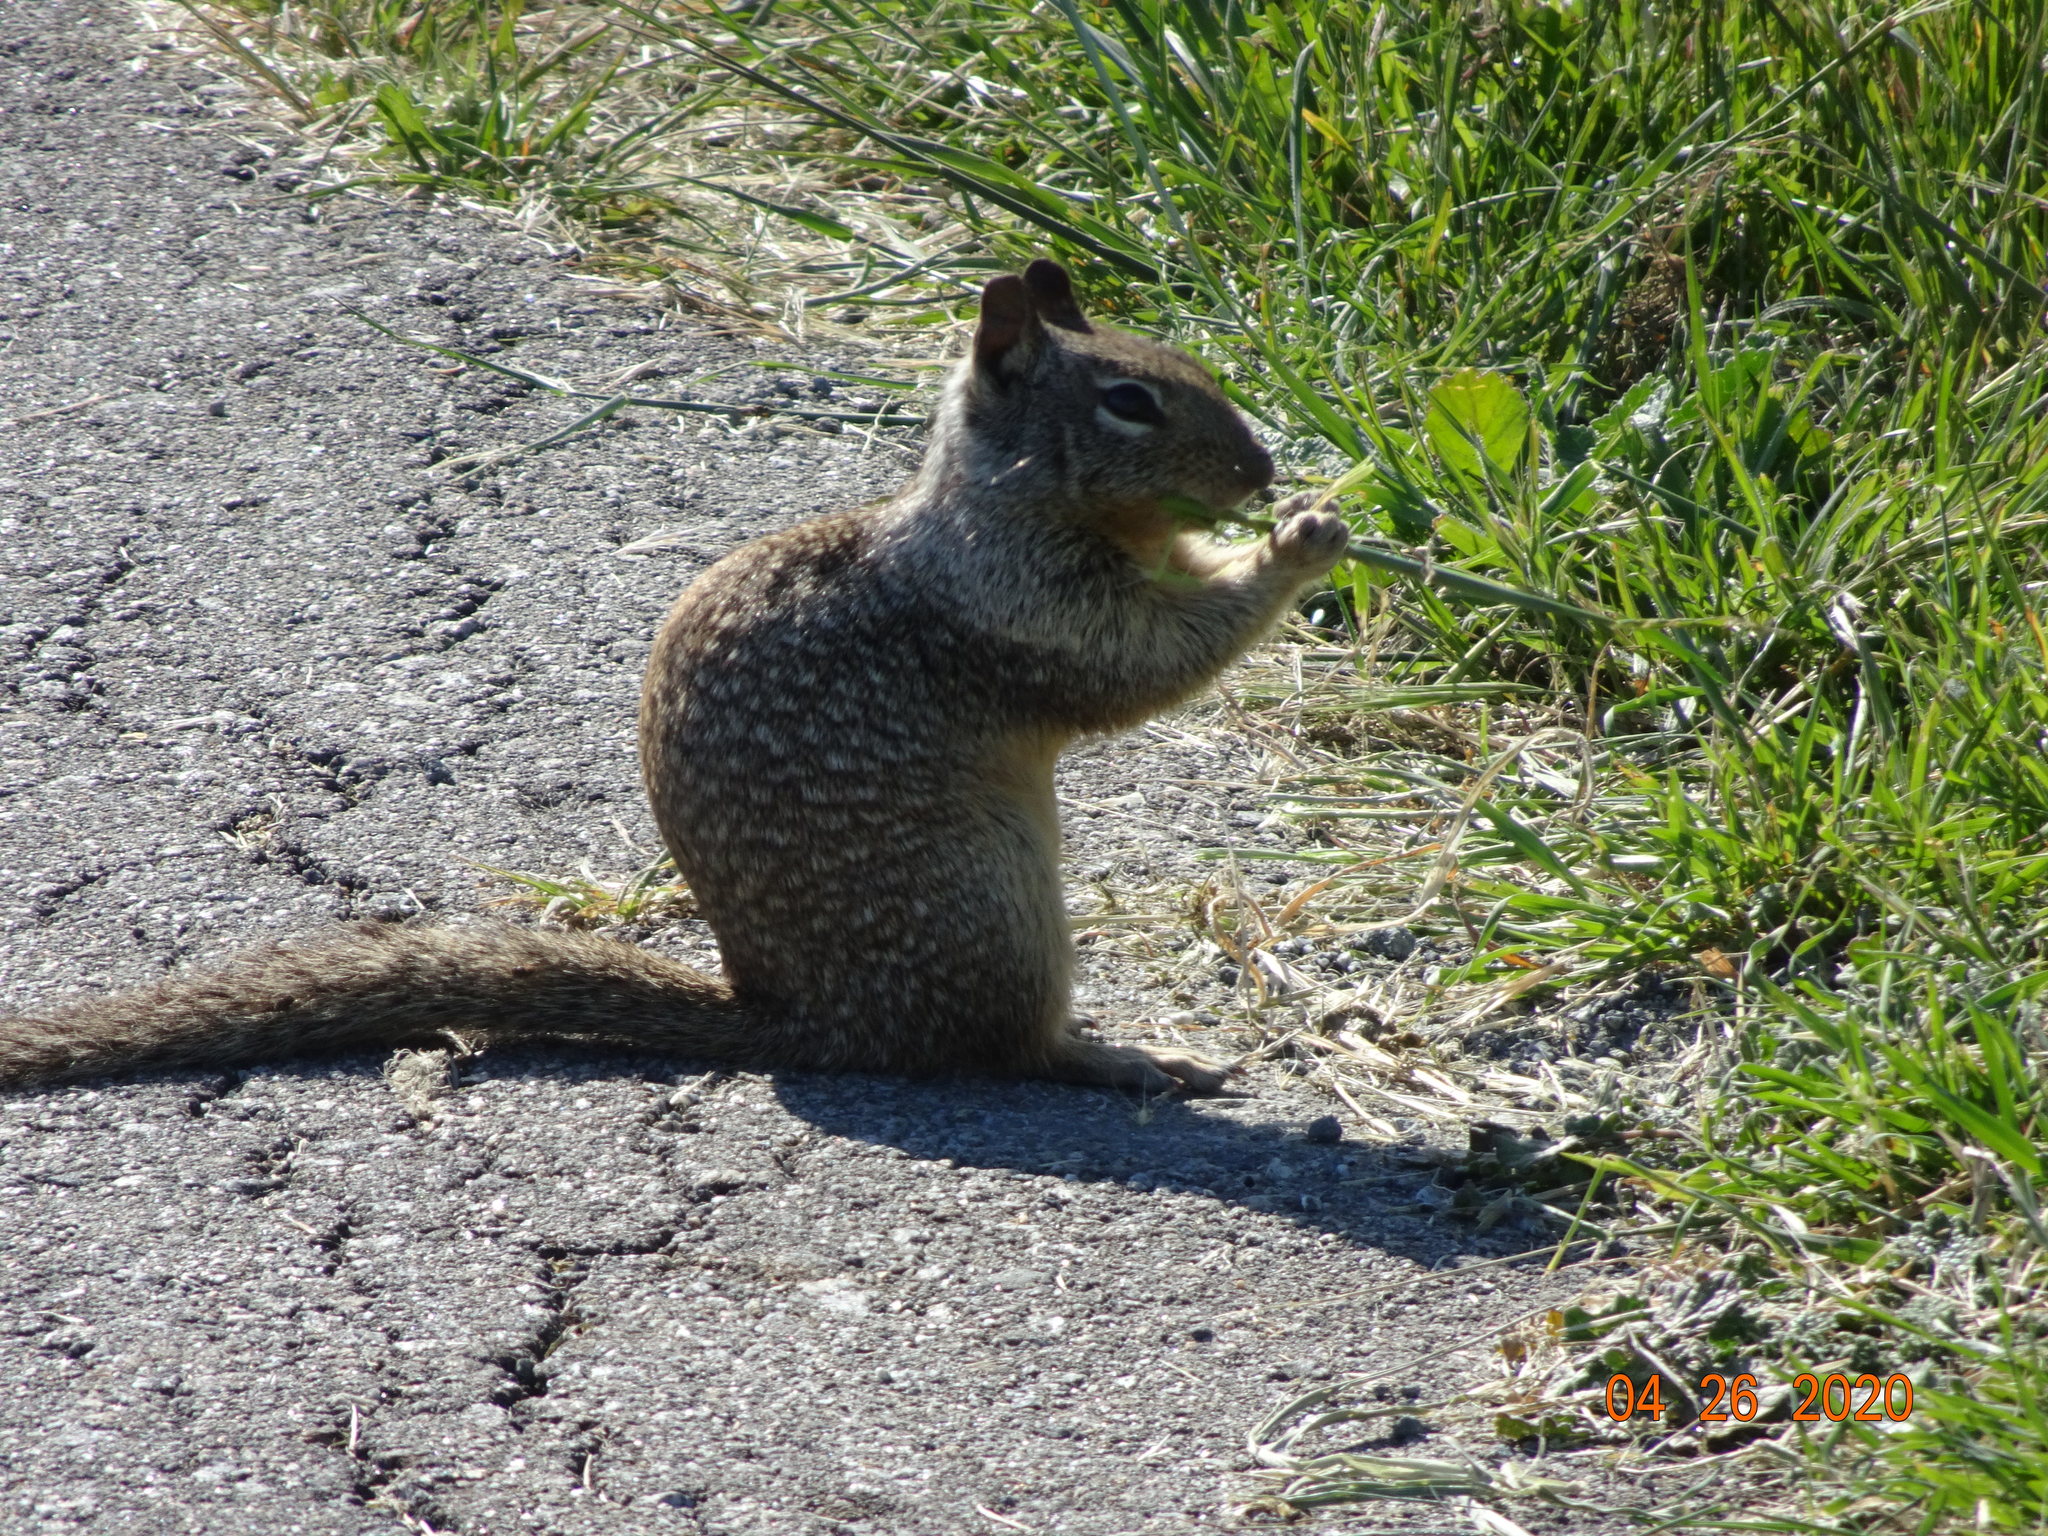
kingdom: Animalia
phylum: Chordata
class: Mammalia
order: Rodentia
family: Sciuridae
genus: Otospermophilus
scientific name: Otospermophilus beecheyi
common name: California ground squirrel
